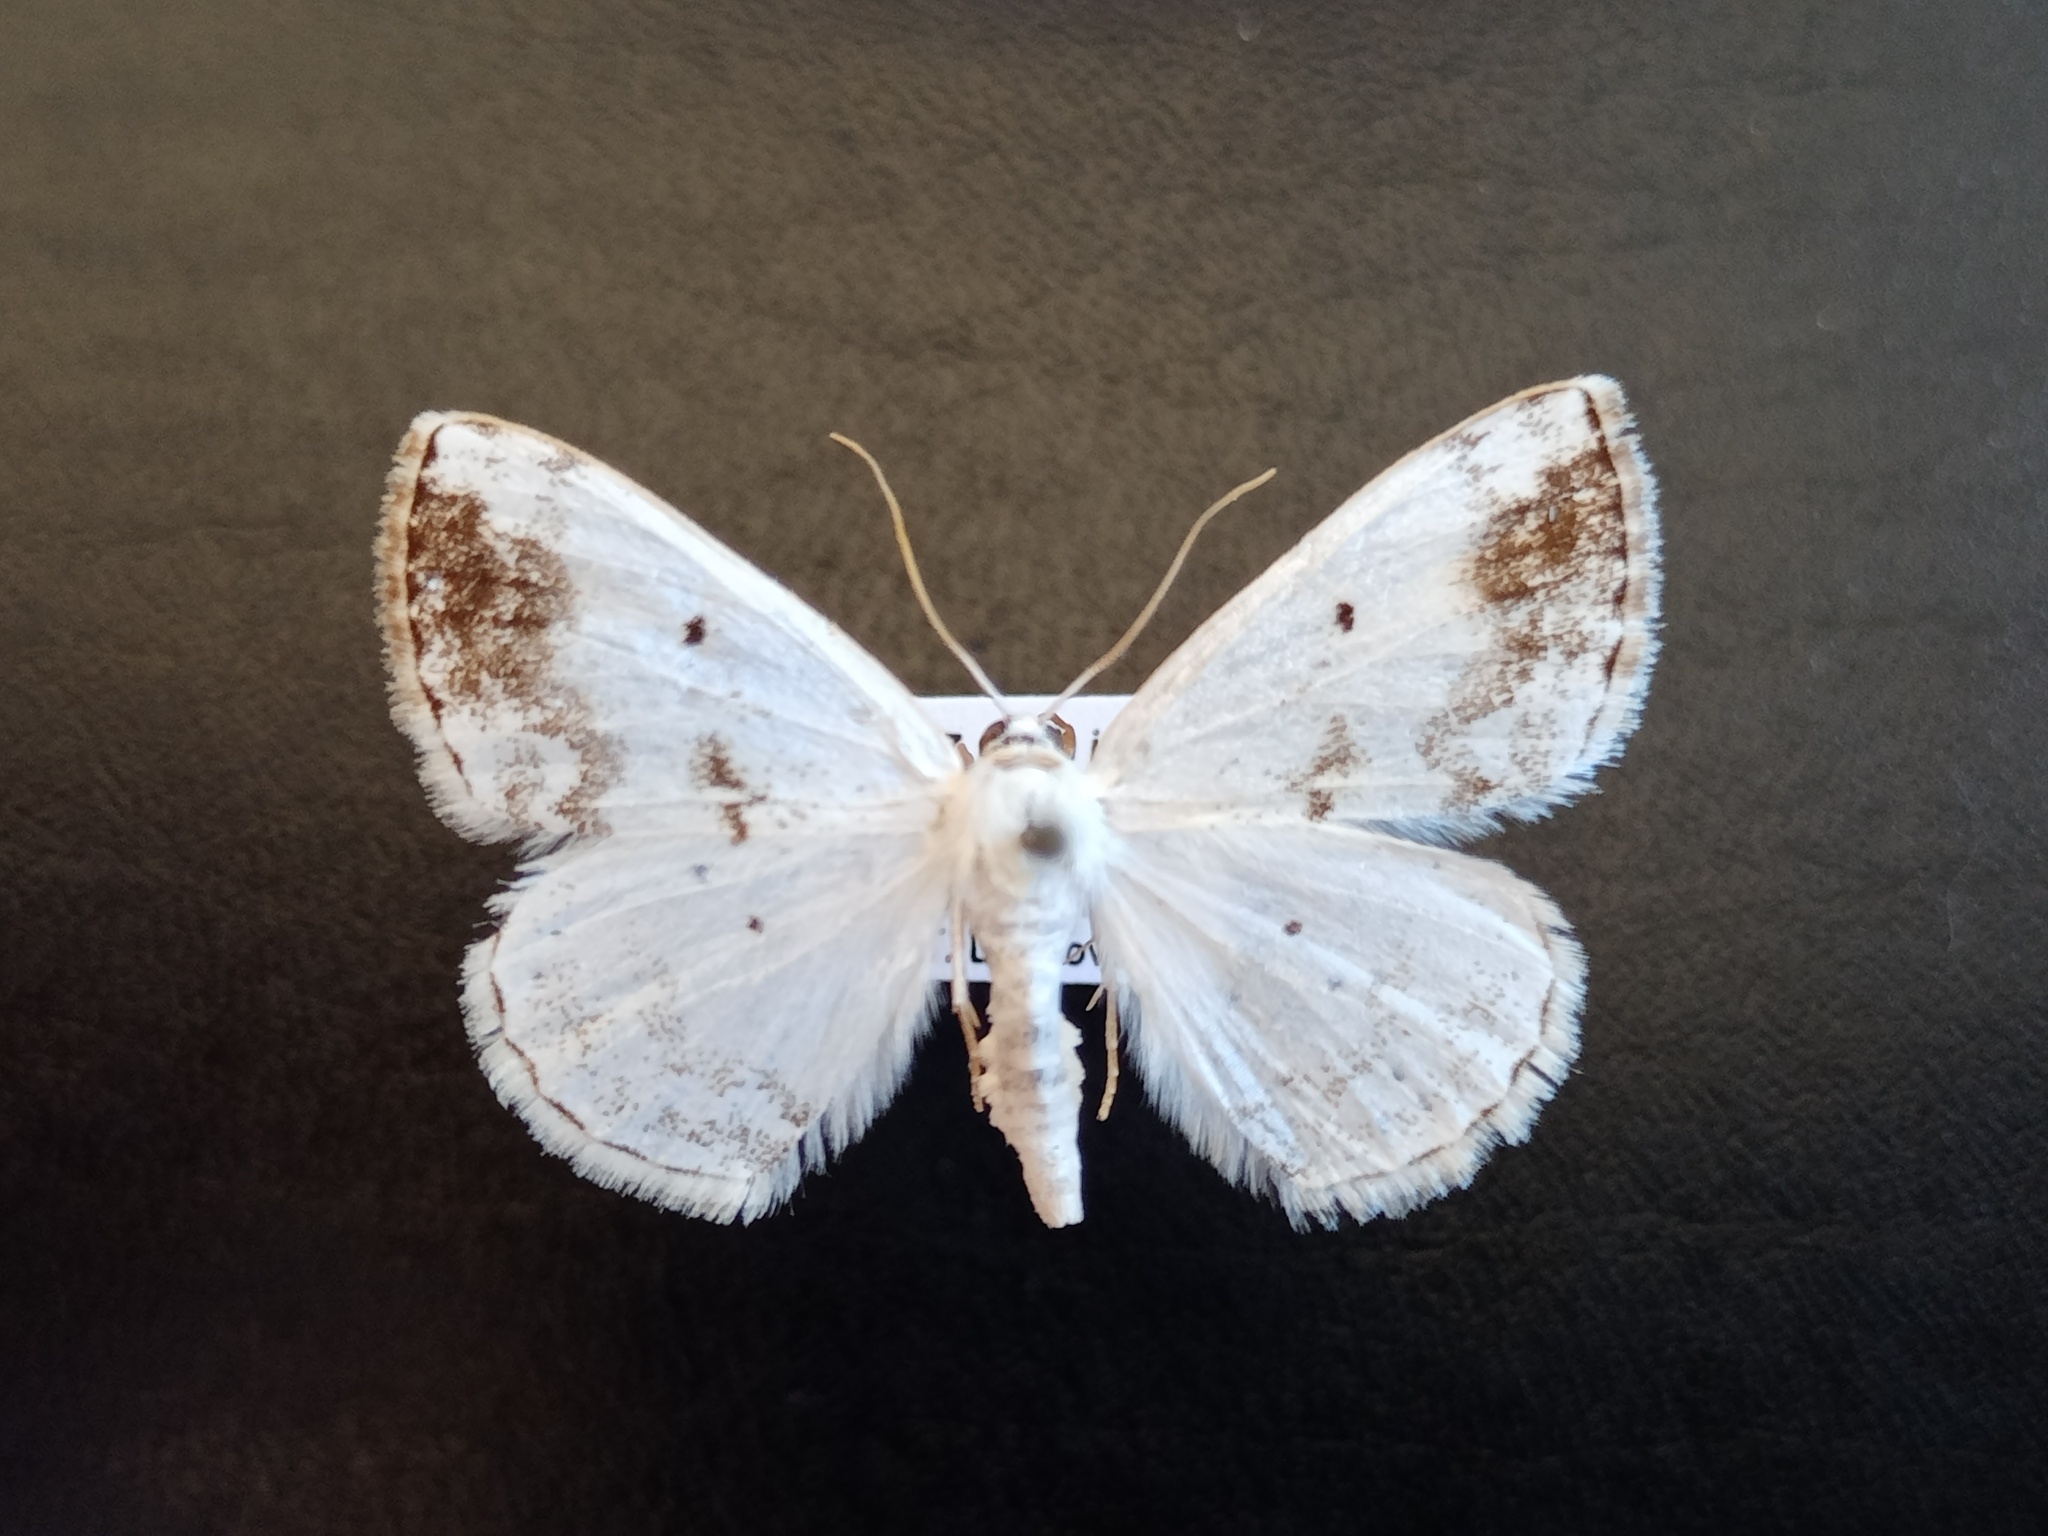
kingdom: Animalia
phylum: Arthropoda
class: Insecta
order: Lepidoptera
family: Geometridae
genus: Lomographa
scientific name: Lomographa temerata
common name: Clouded silver
